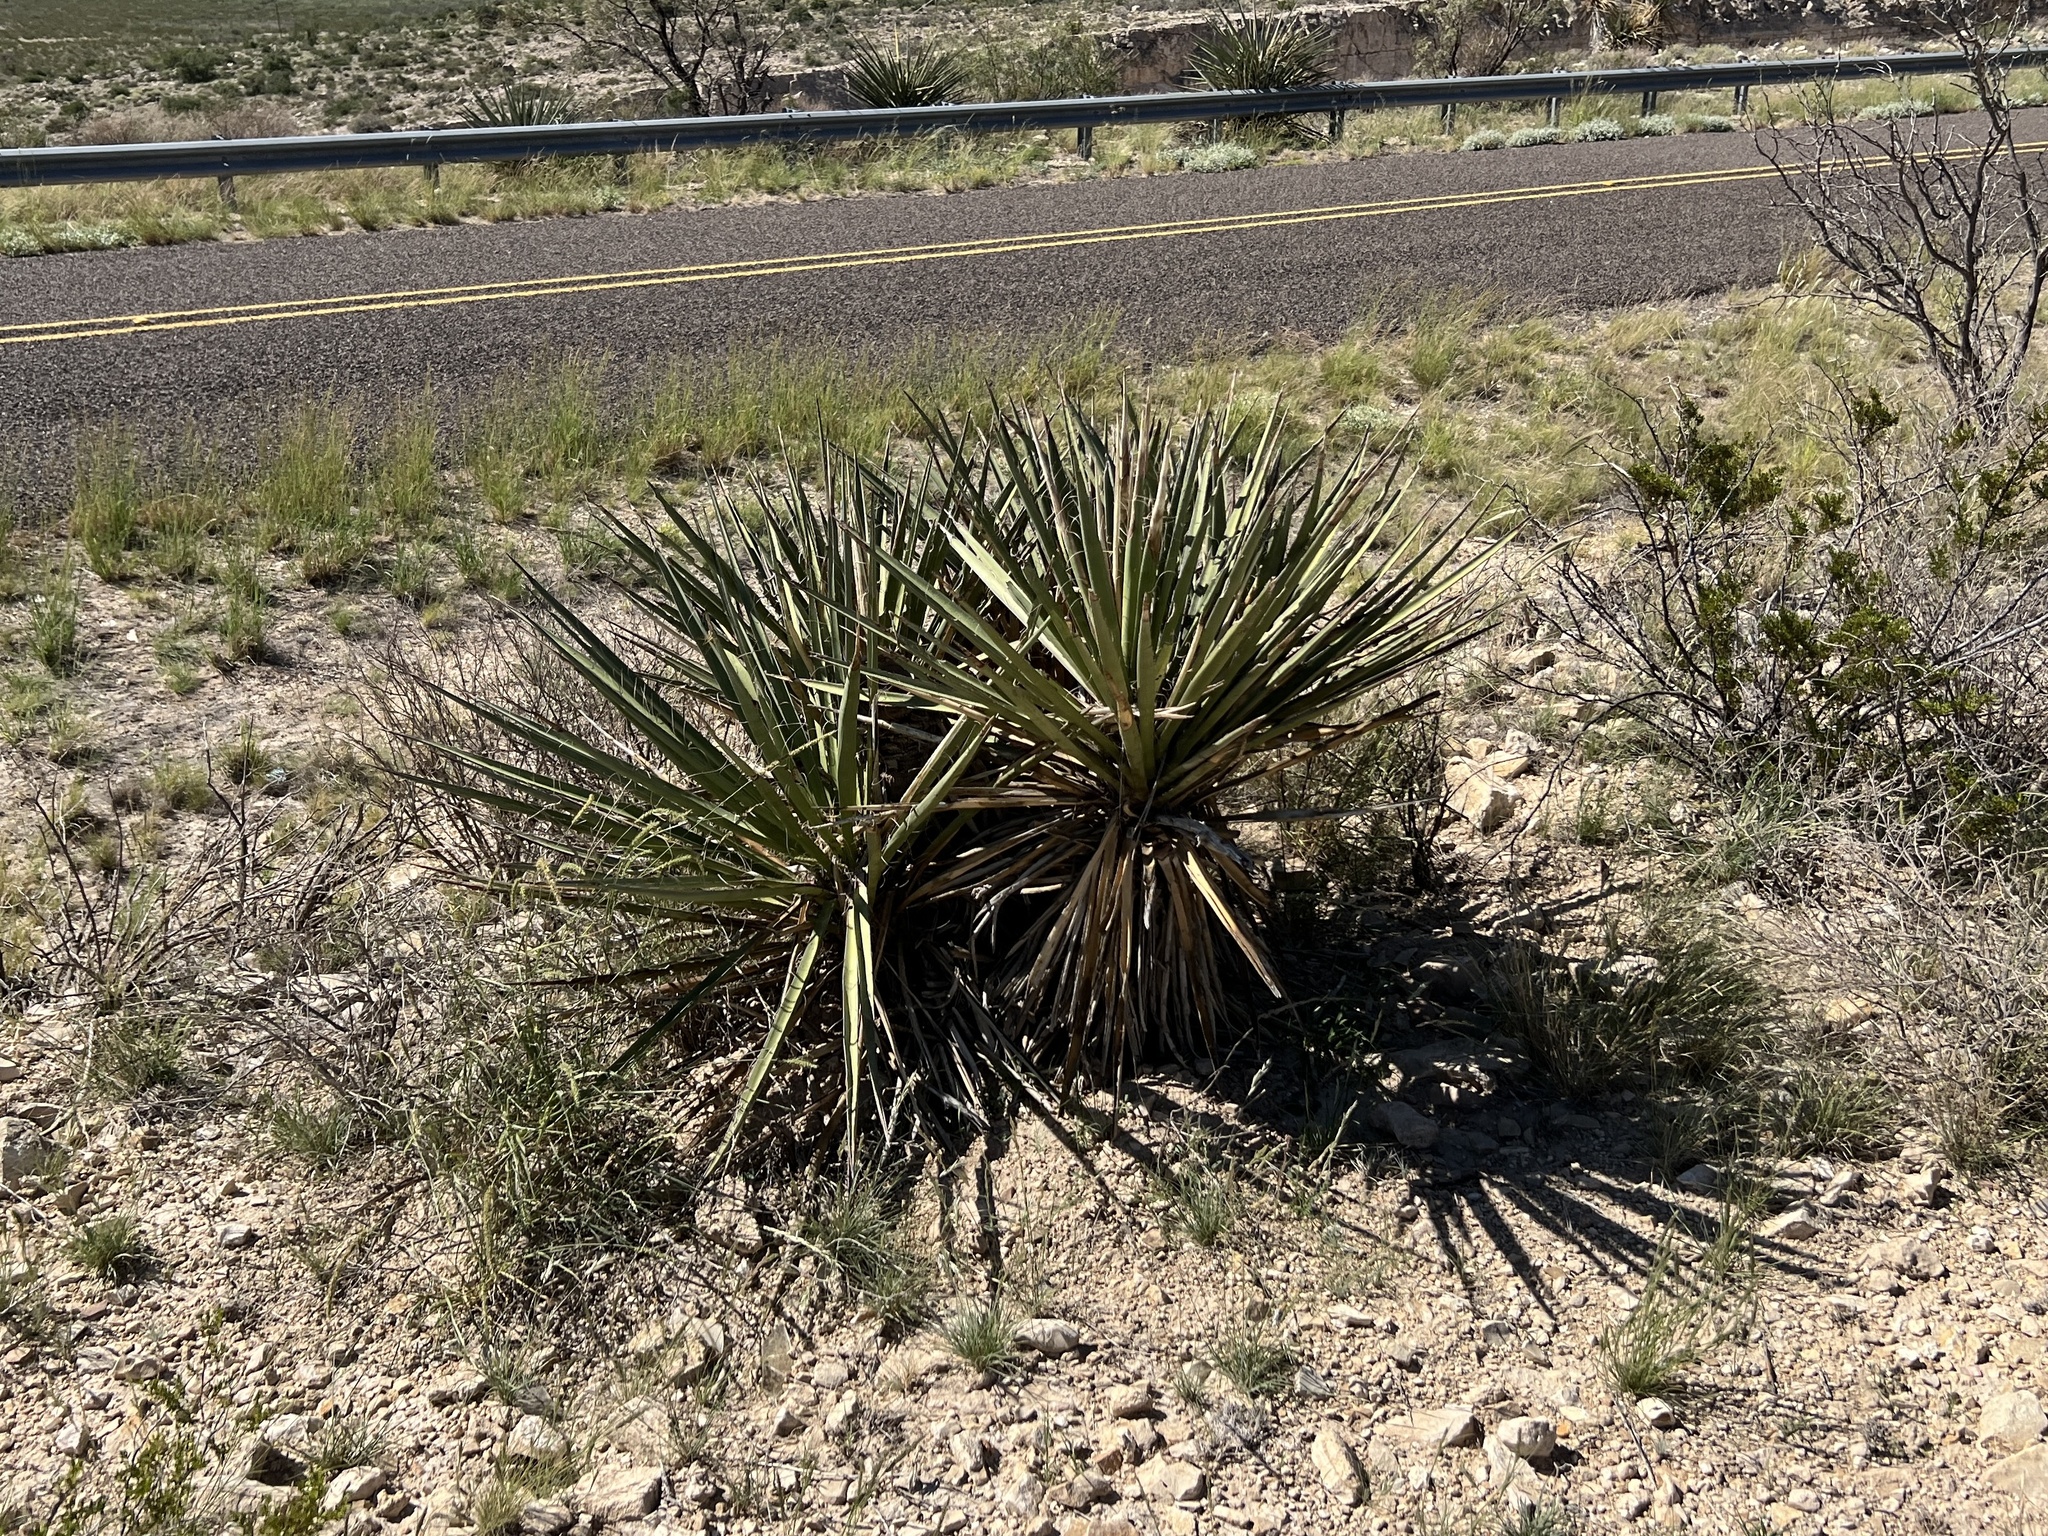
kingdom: Plantae
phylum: Tracheophyta
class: Liliopsida
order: Asparagales
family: Asparagaceae
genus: Yucca
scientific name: Yucca baccata
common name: Banana yucca
